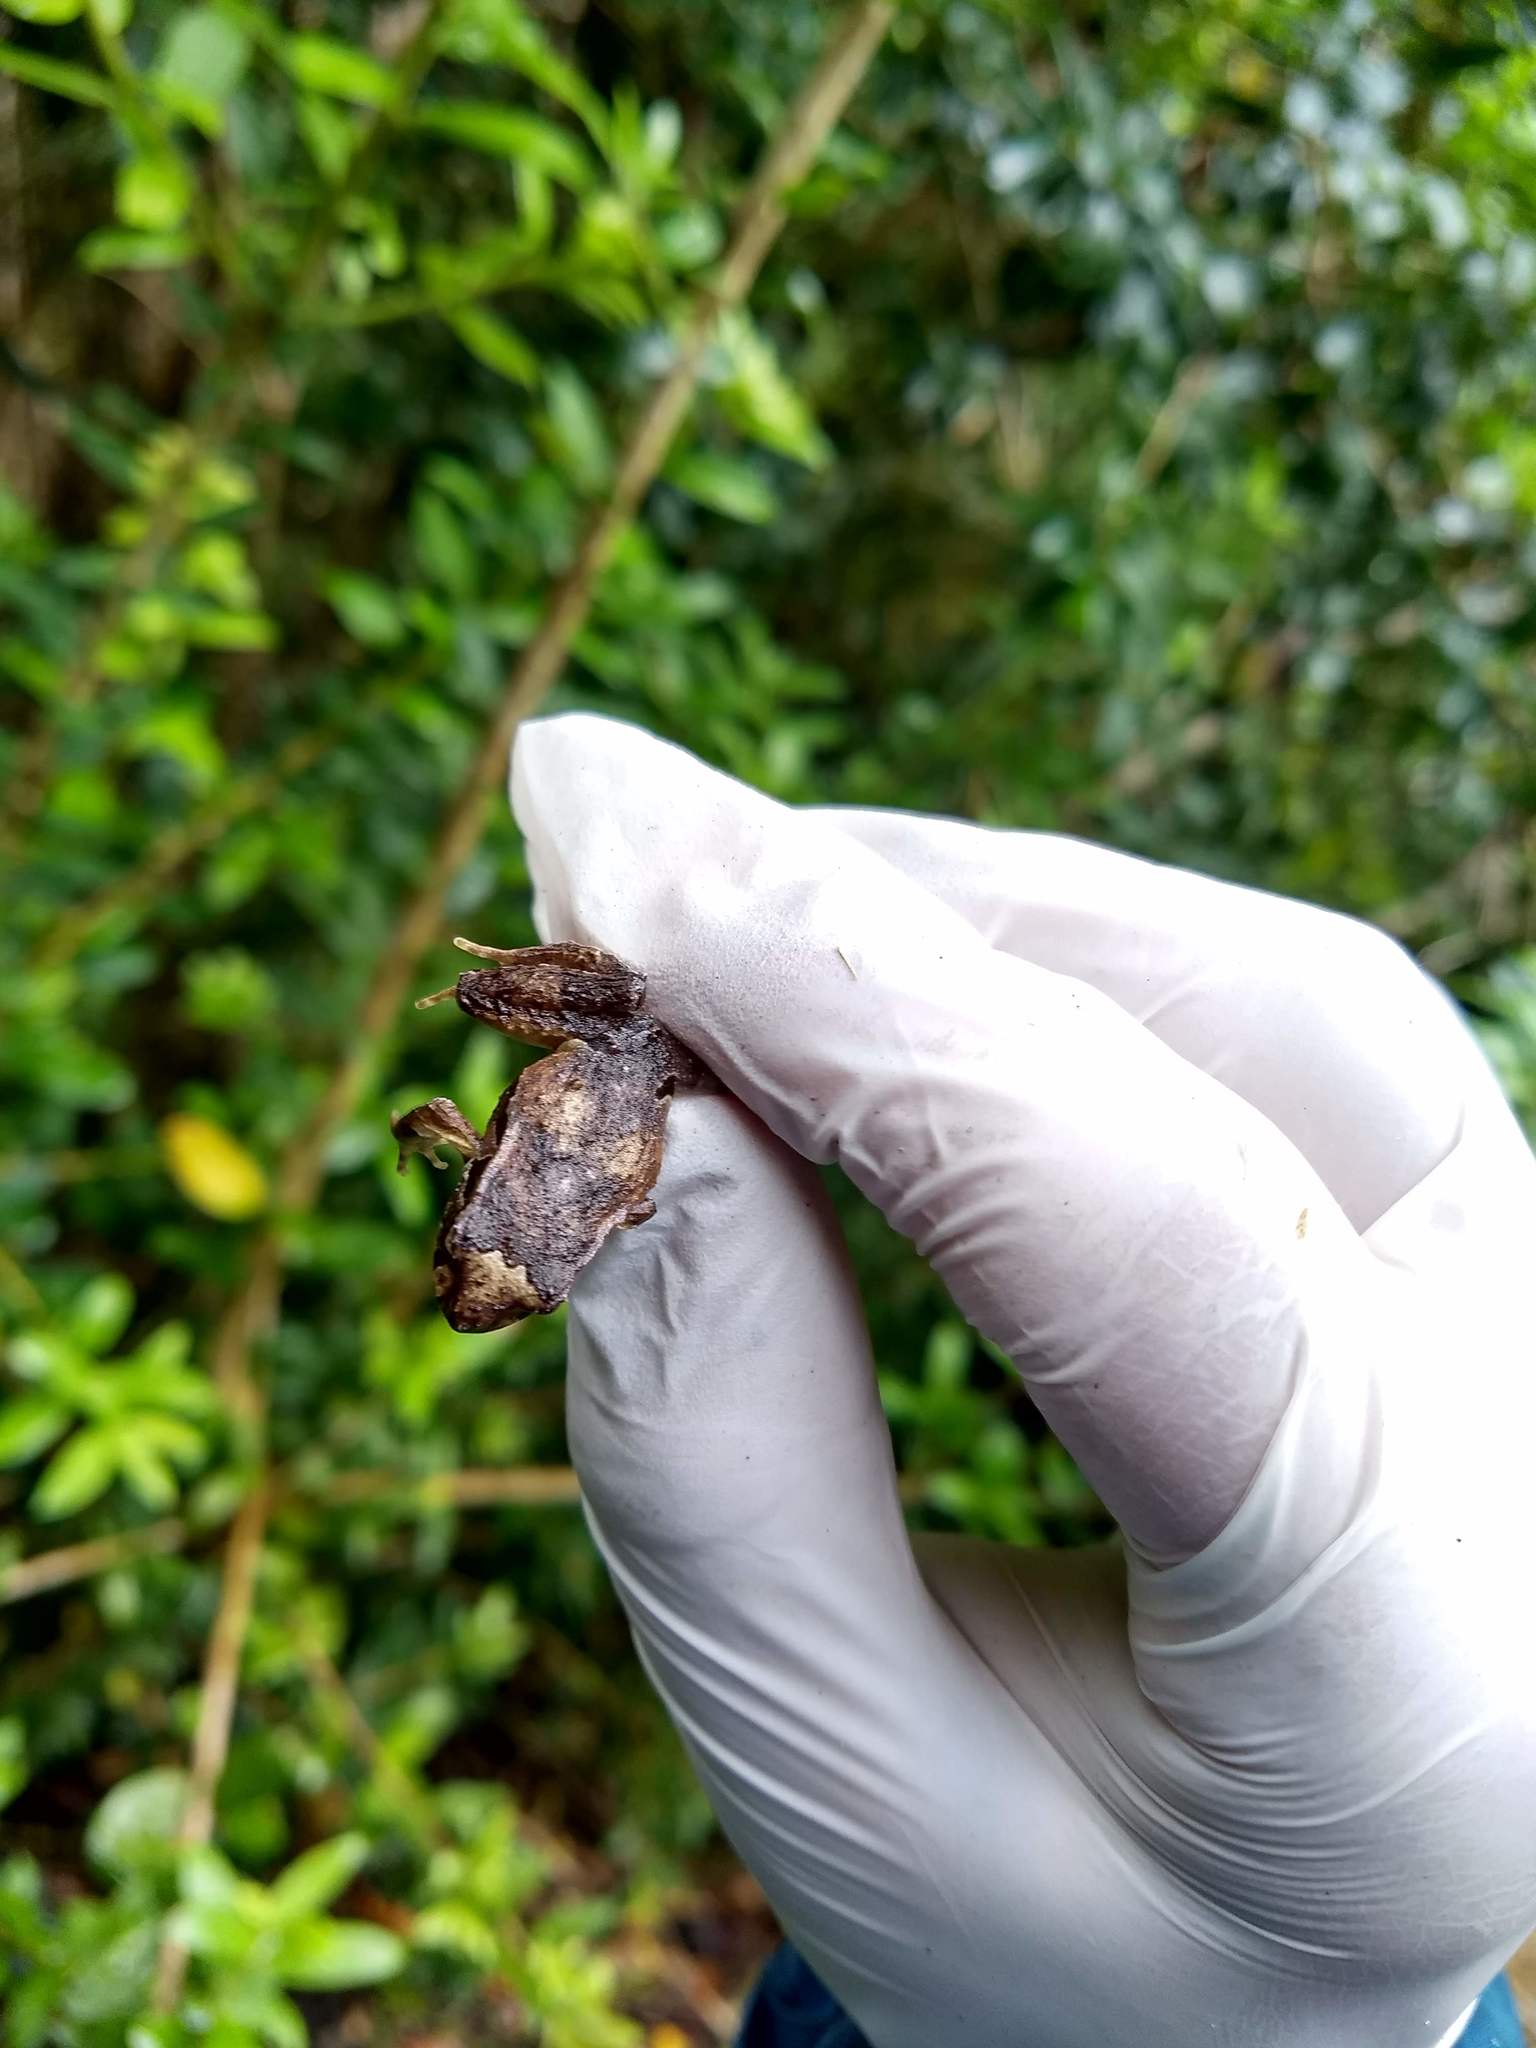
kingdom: Animalia
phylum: Chordata
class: Amphibia
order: Anura
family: Alsodidae
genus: Eupsophus
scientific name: Eupsophus calcaratus
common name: Chiloe island ground frog
